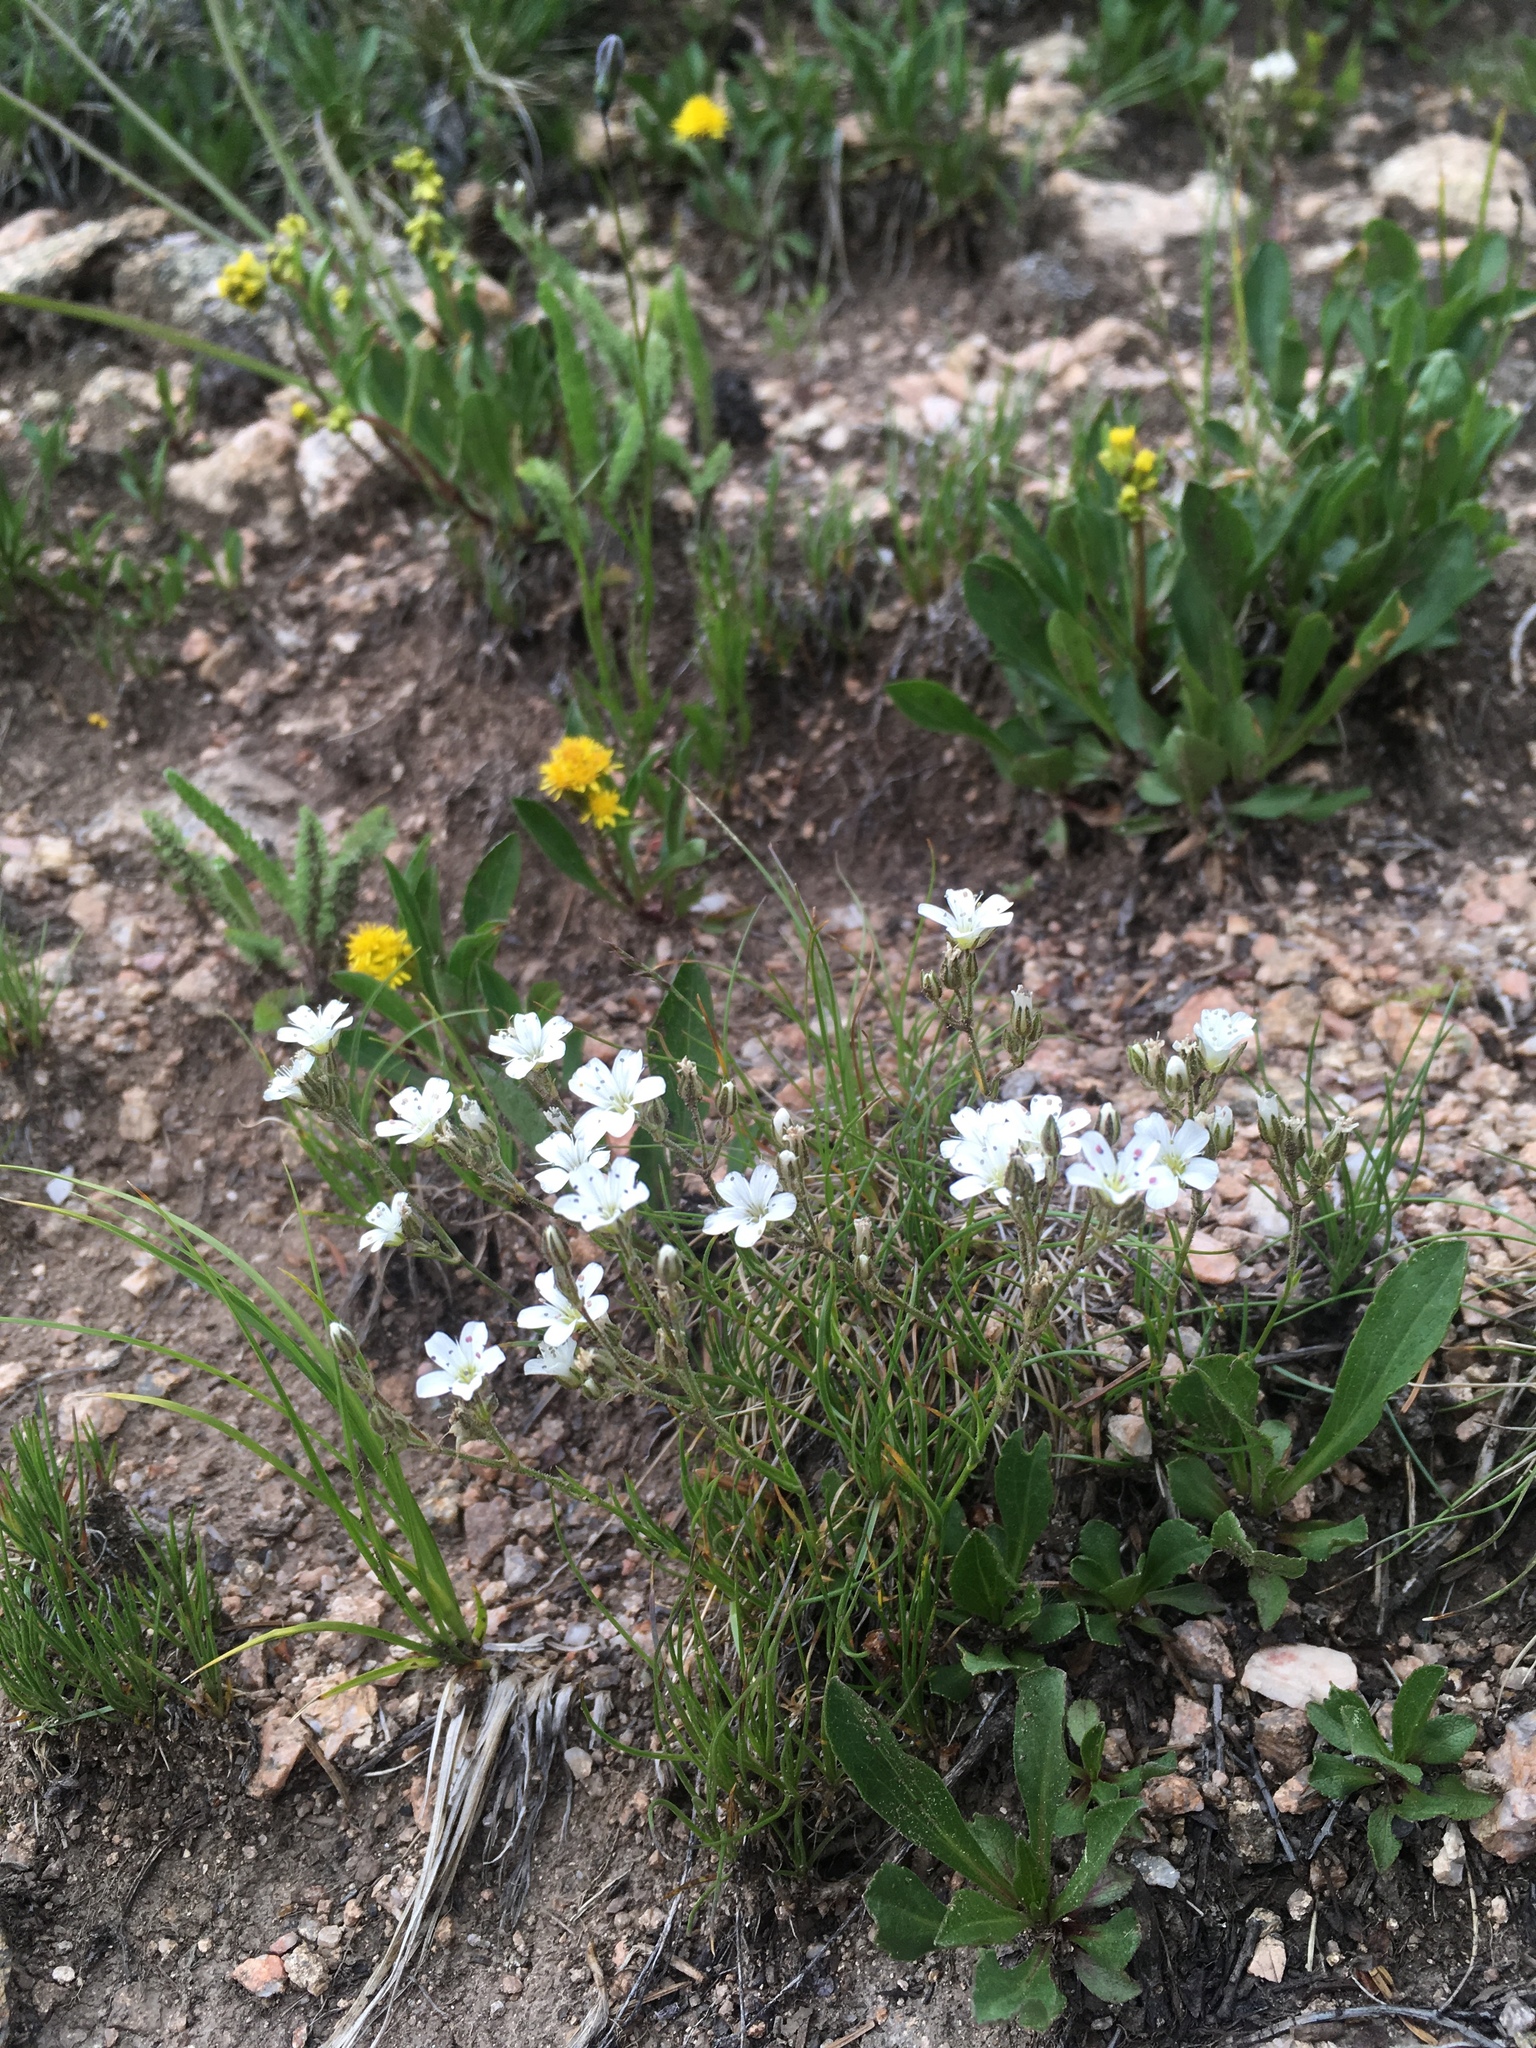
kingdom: Plantae
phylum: Tracheophyta
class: Magnoliopsida
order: Caryophyllales
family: Caryophyllaceae
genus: Eremogone
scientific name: Eremogone fendleri
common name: Fendler's sandwort
